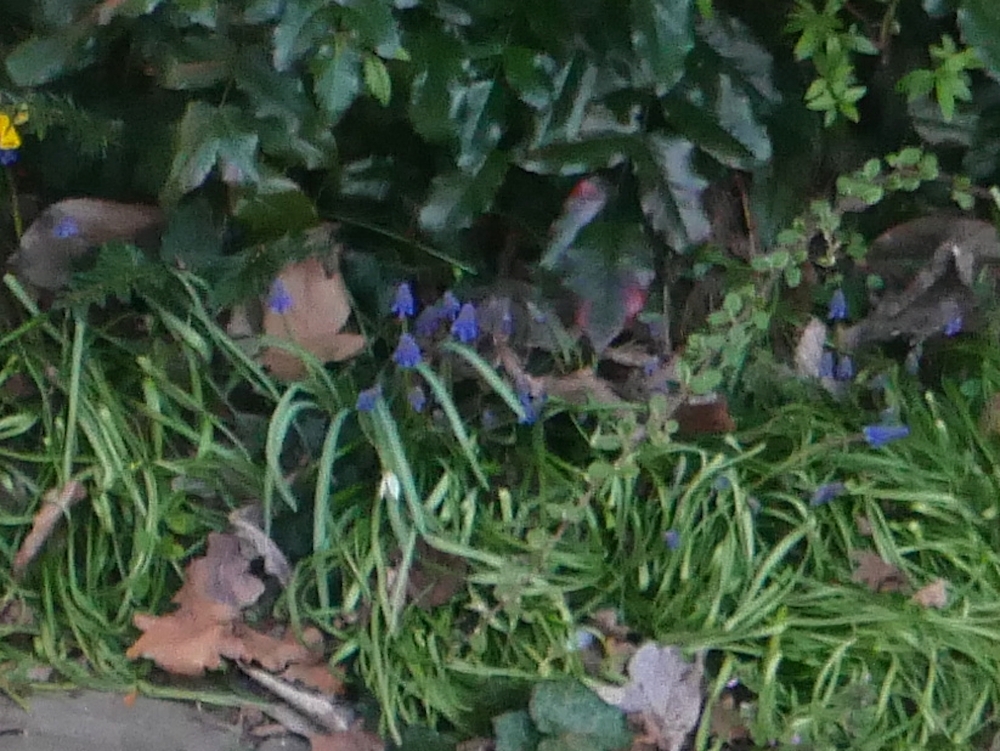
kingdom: Plantae
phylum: Tracheophyta
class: Liliopsida
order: Asparagales
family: Asparagaceae
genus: Muscari
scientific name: Muscari armeniacum
